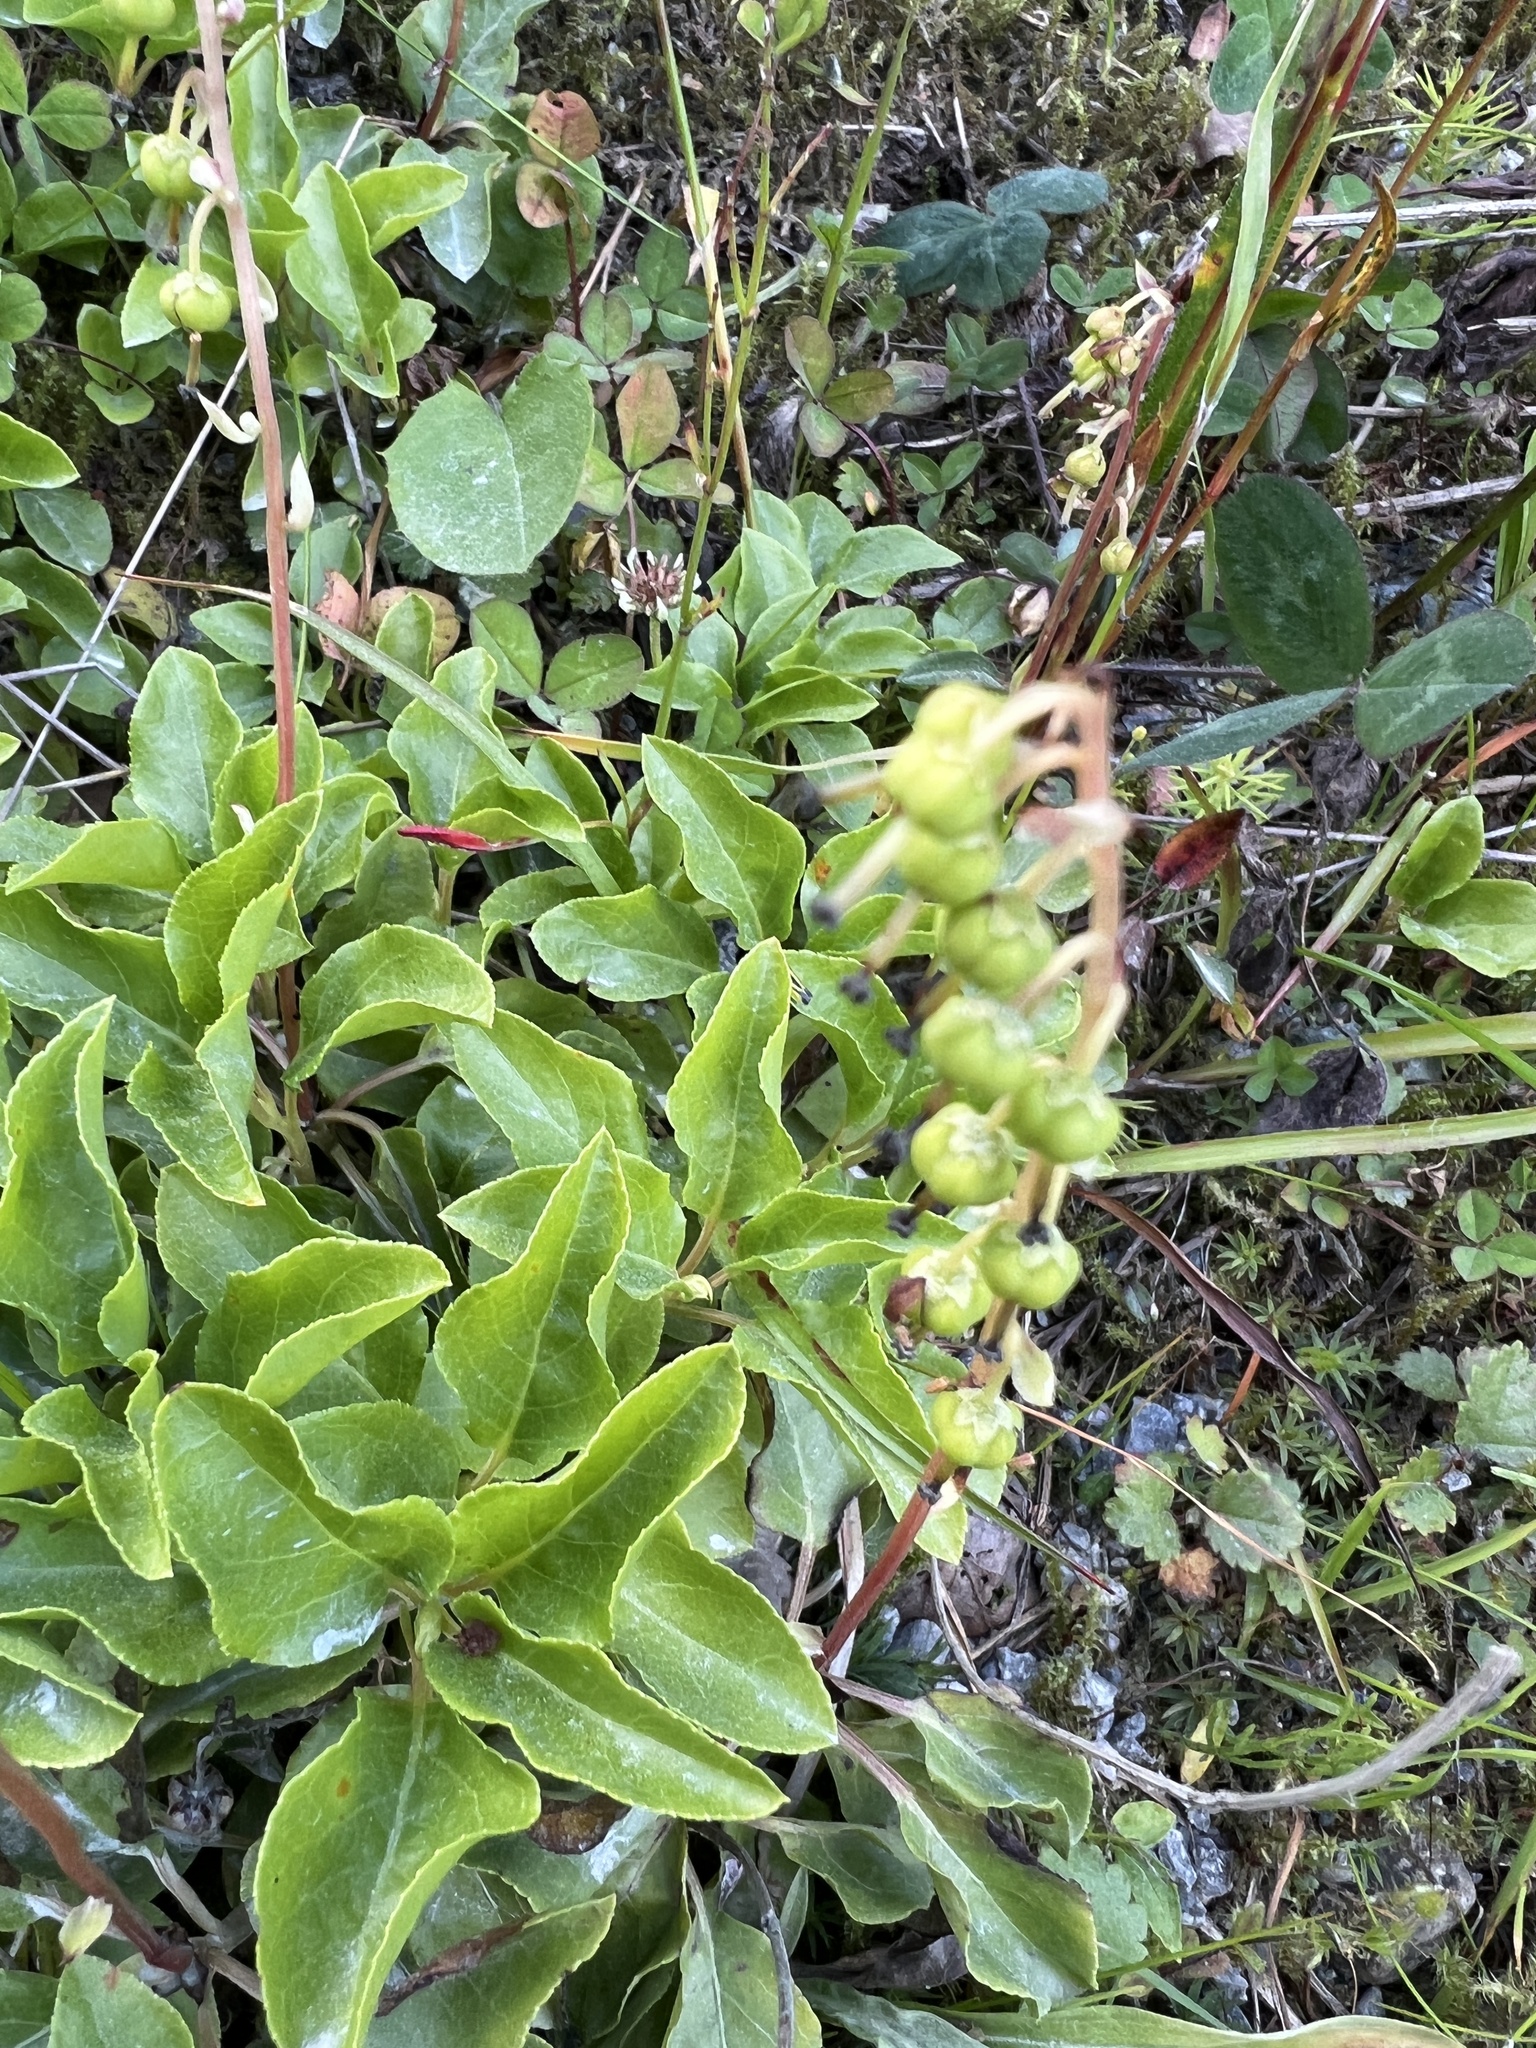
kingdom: Plantae
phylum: Tracheophyta
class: Magnoliopsida
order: Ericales
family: Ericaceae
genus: Orthilia
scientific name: Orthilia secunda
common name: One-sided orthilia
